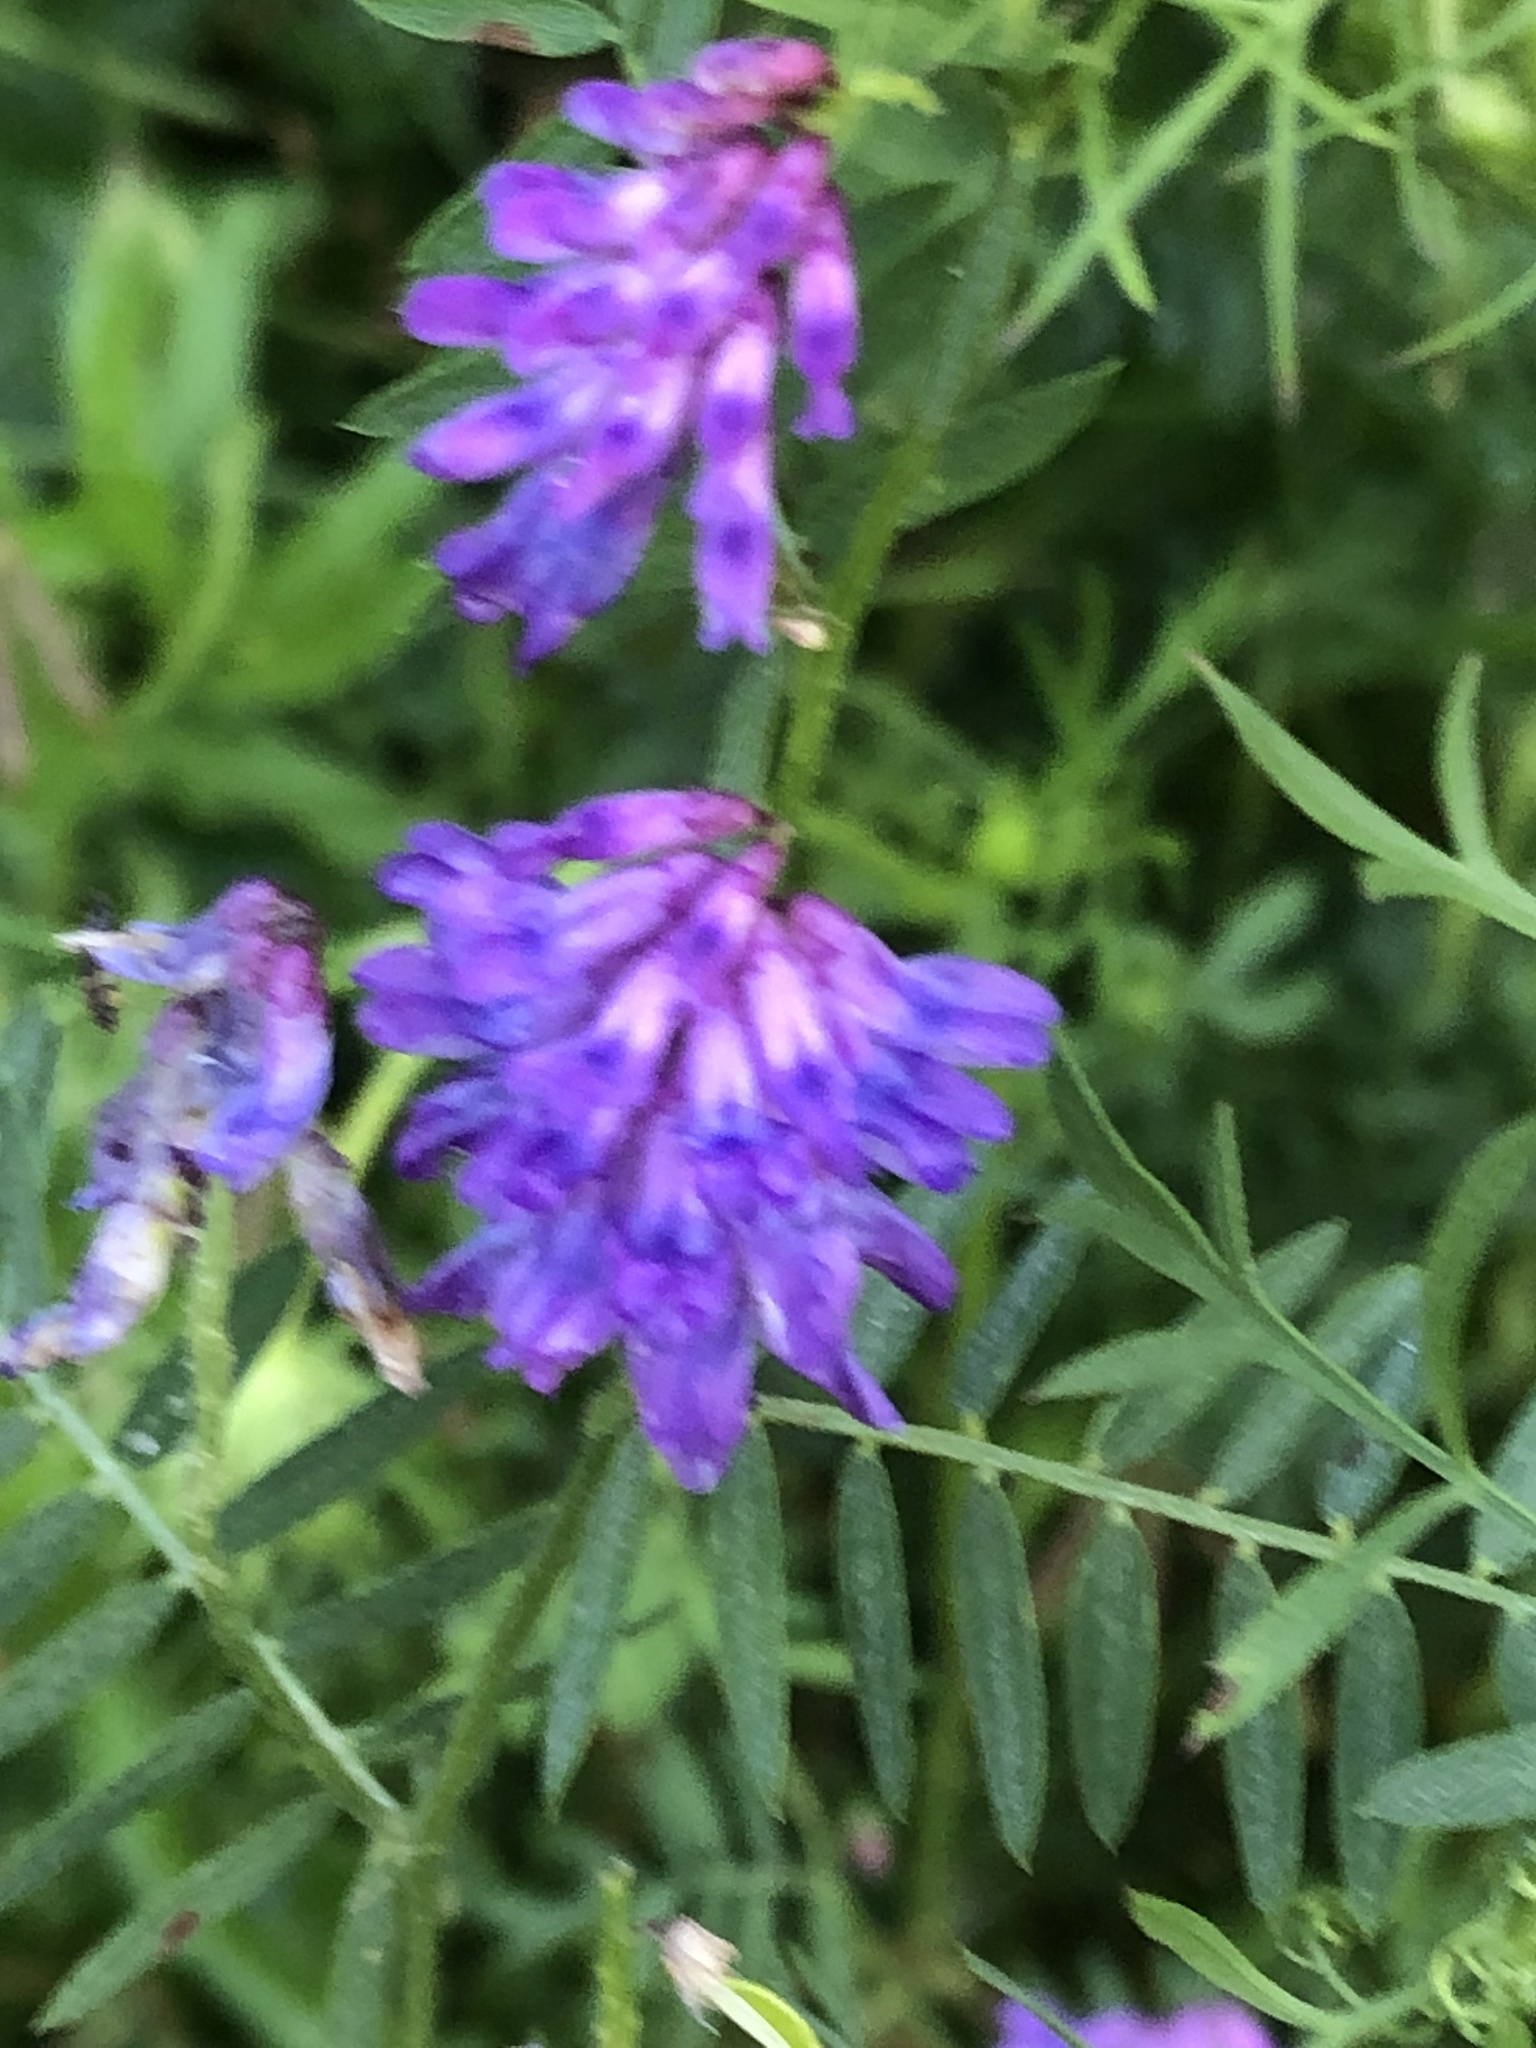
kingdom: Plantae
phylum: Tracheophyta
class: Magnoliopsida
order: Fabales
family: Fabaceae
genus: Vicia
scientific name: Vicia cracca
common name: Bird vetch
